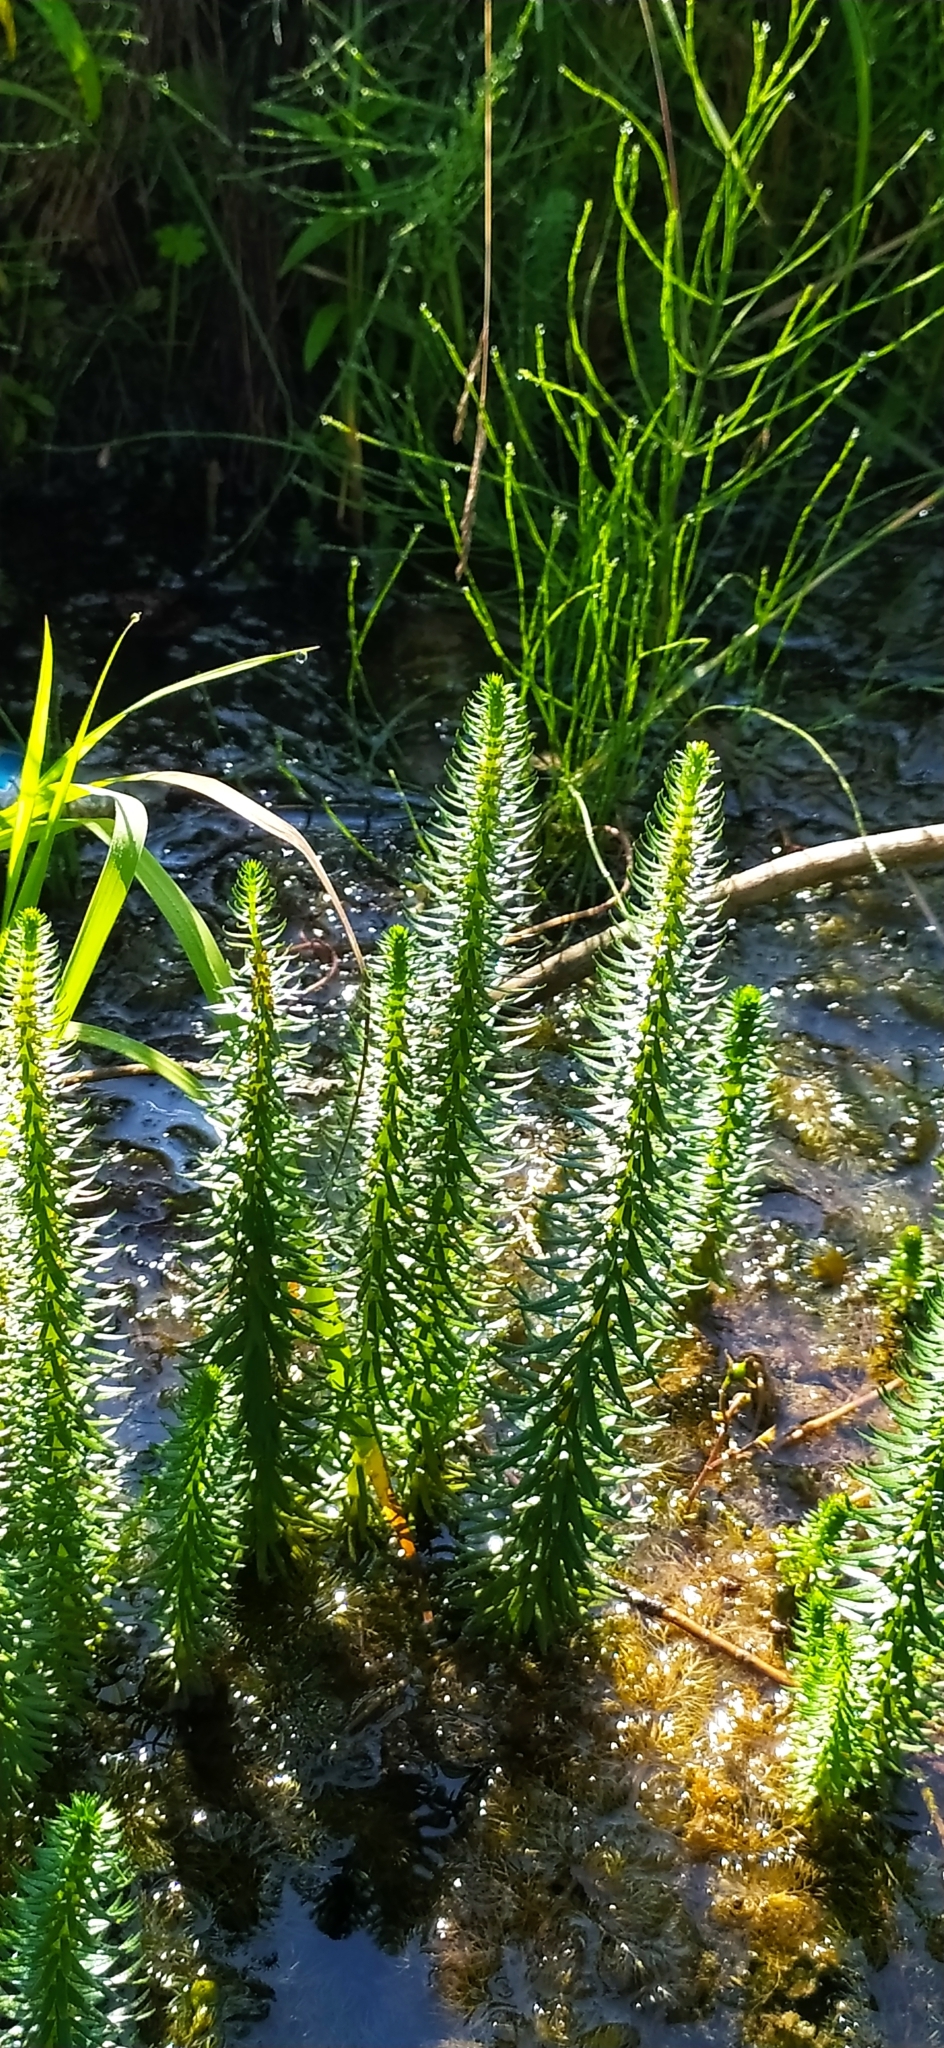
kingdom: Plantae
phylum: Tracheophyta
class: Magnoliopsida
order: Lamiales
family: Plantaginaceae
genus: Hippuris
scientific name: Hippuris vulgaris
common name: Mare's-tail
